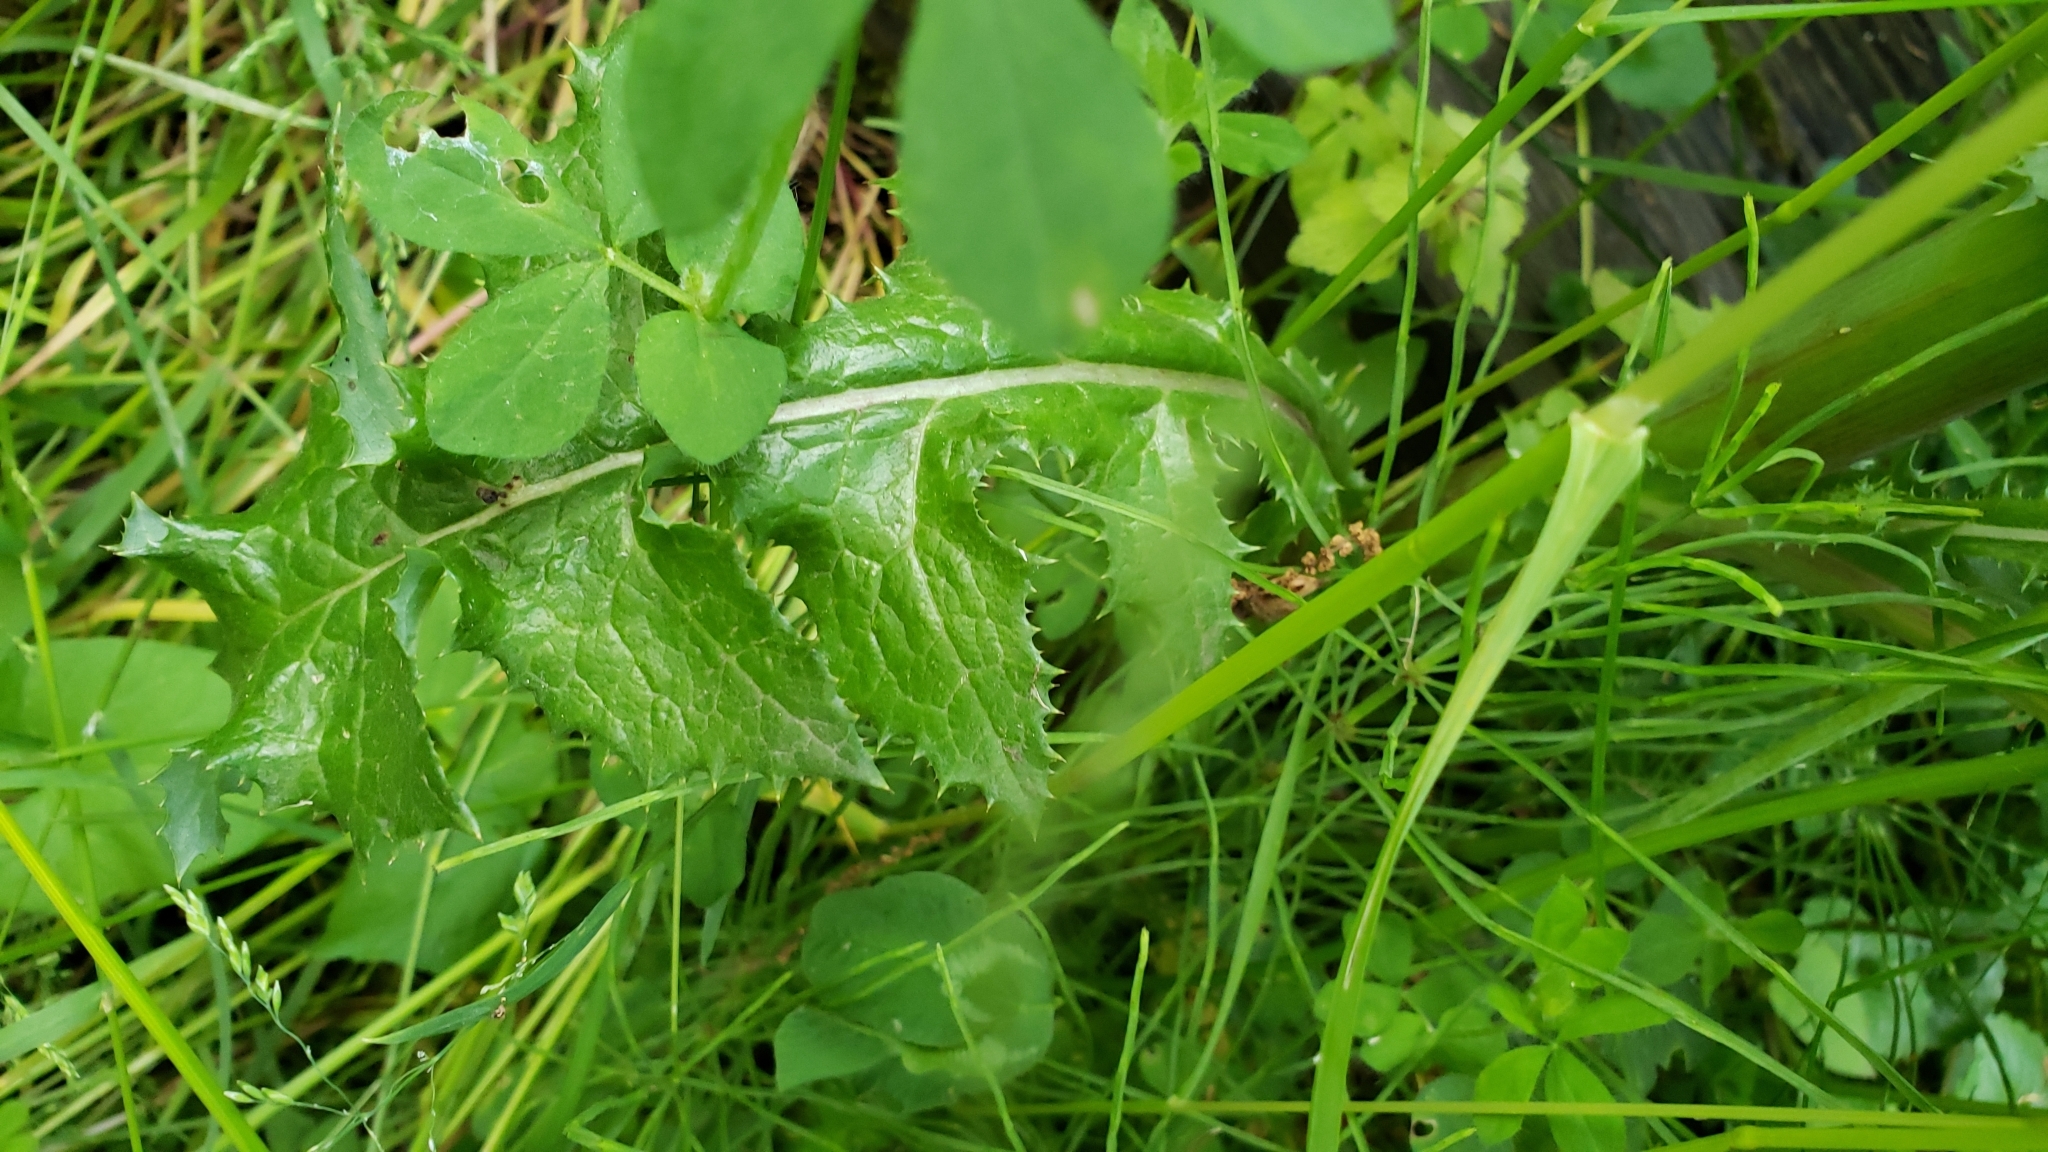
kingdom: Plantae
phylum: Tracheophyta
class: Magnoliopsida
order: Asterales
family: Asteraceae
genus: Sonchus
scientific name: Sonchus asper
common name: Prickly sow-thistle
